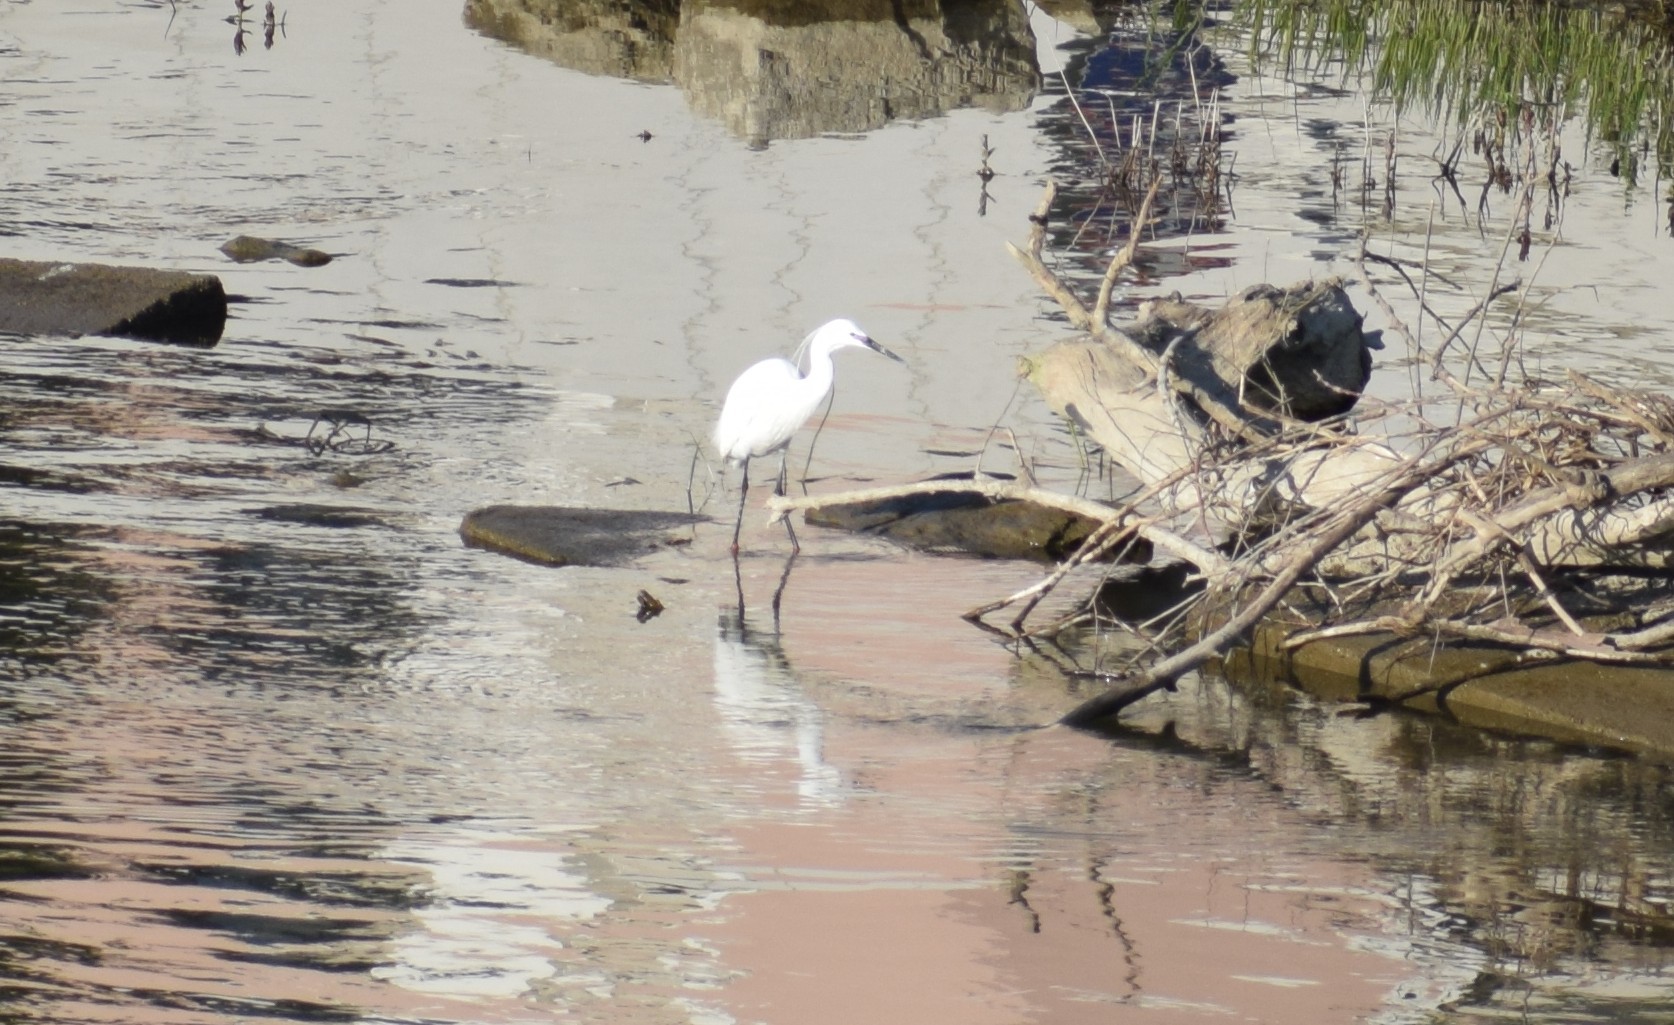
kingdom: Animalia
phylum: Chordata
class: Aves
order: Pelecaniformes
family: Ardeidae
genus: Egretta
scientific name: Egretta garzetta
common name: Little egret
